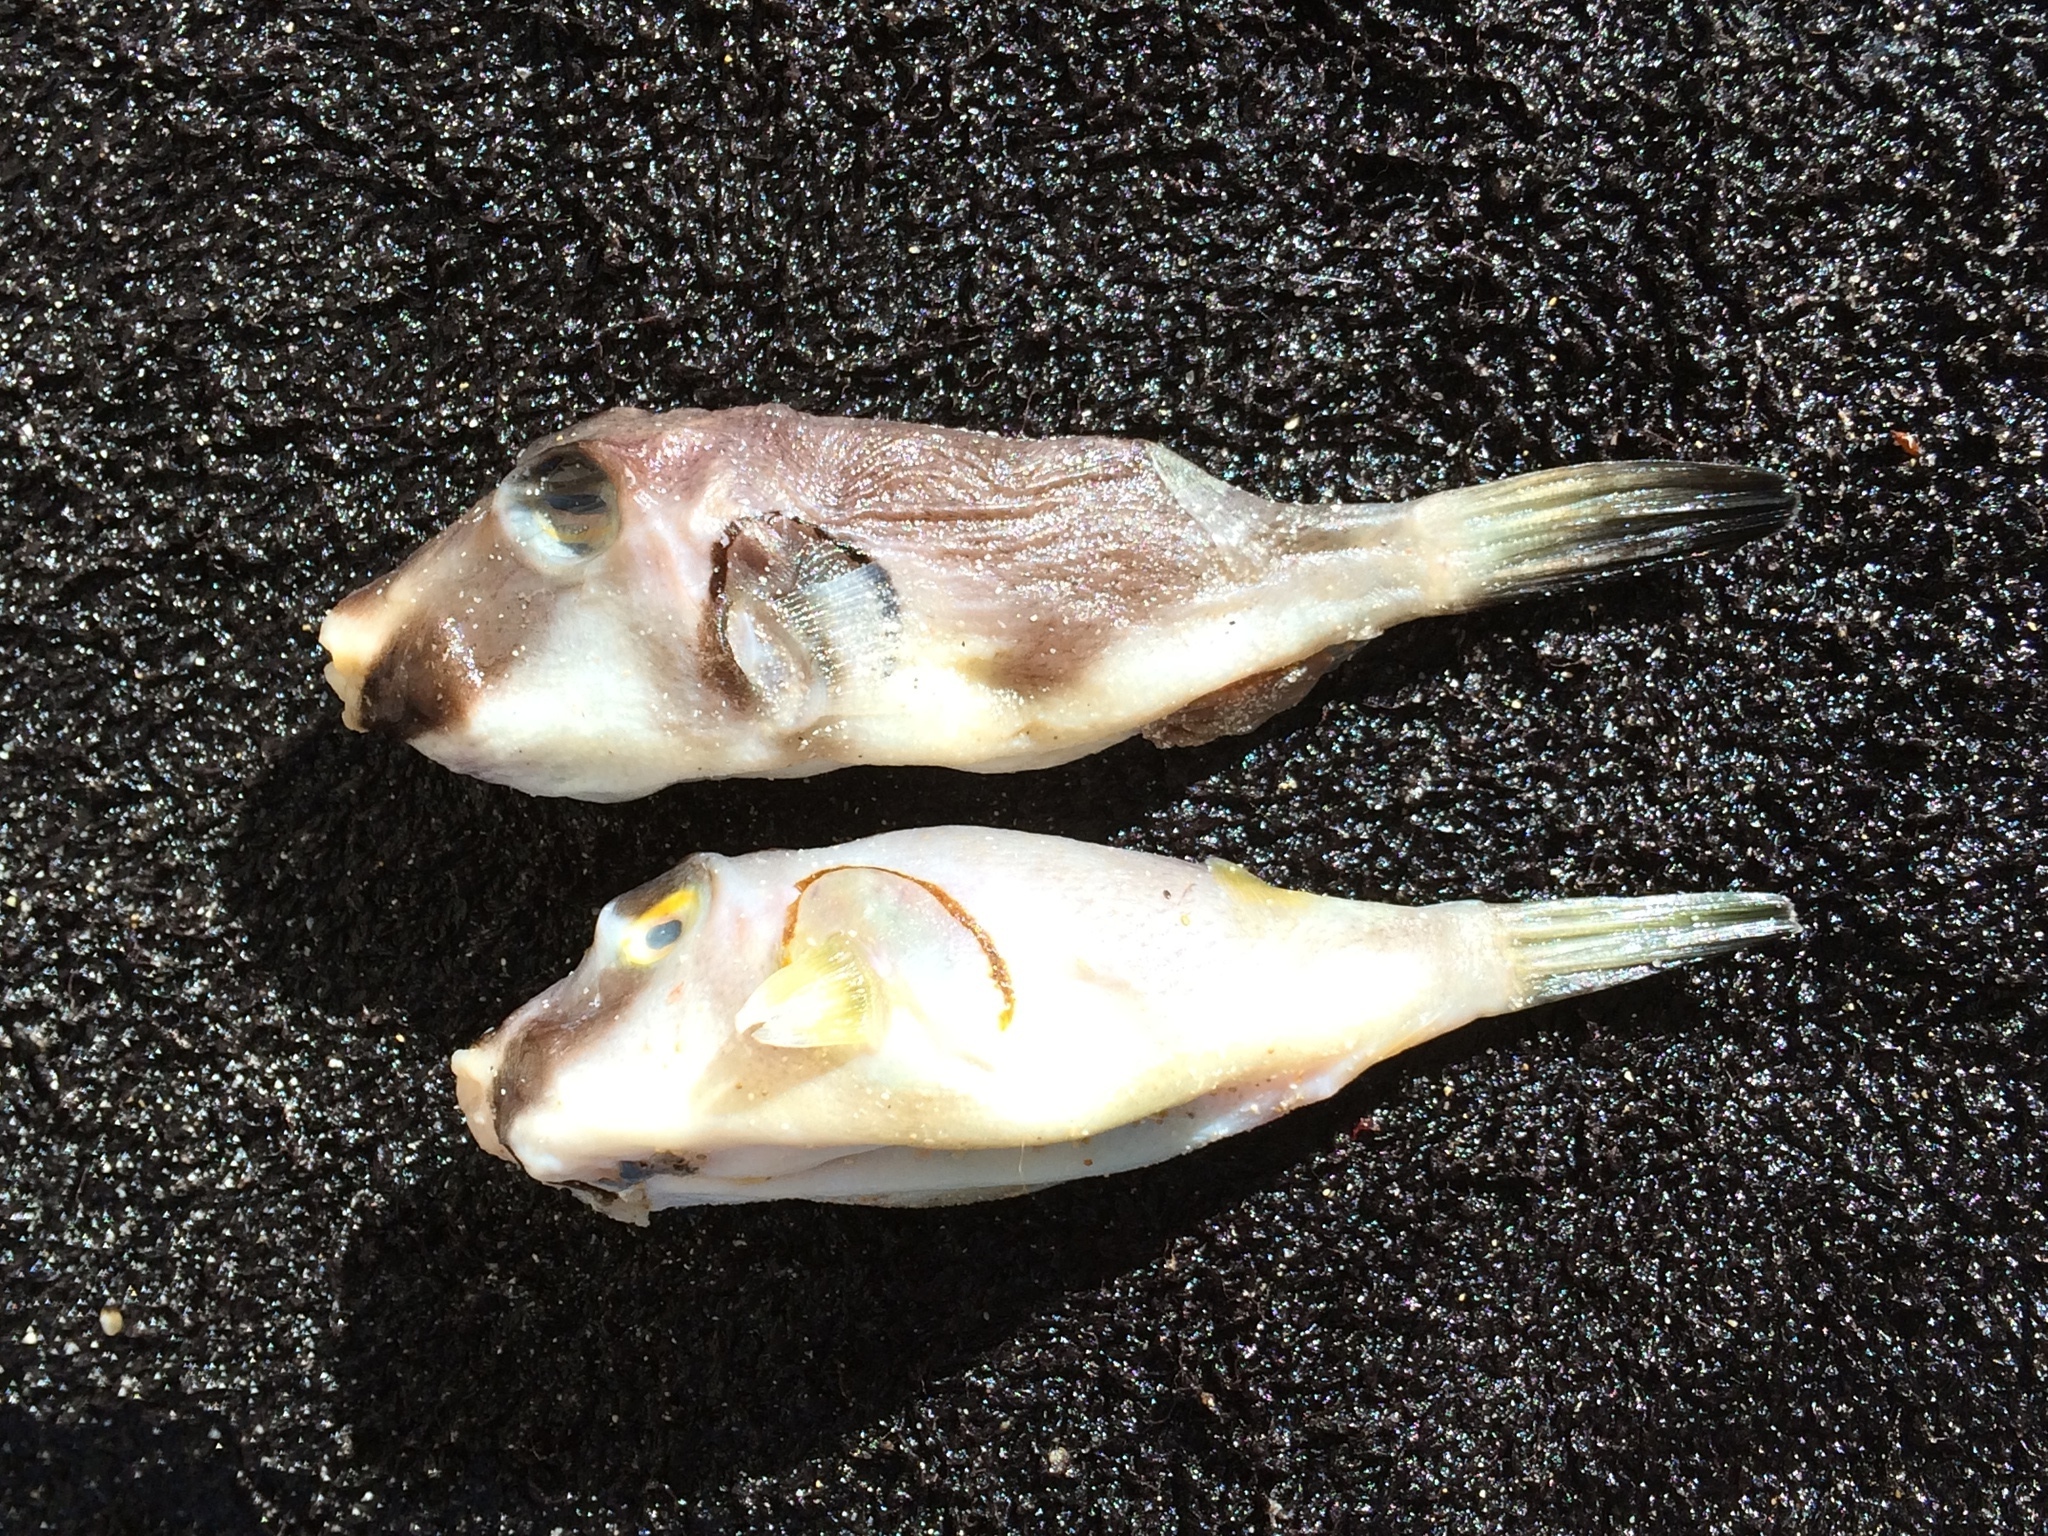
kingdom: Animalia
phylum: Chordata
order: Tetraodontiformes
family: Tetraodontidae
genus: Omegophora
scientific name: Omegophora armilla
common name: Ringed pufferfish
